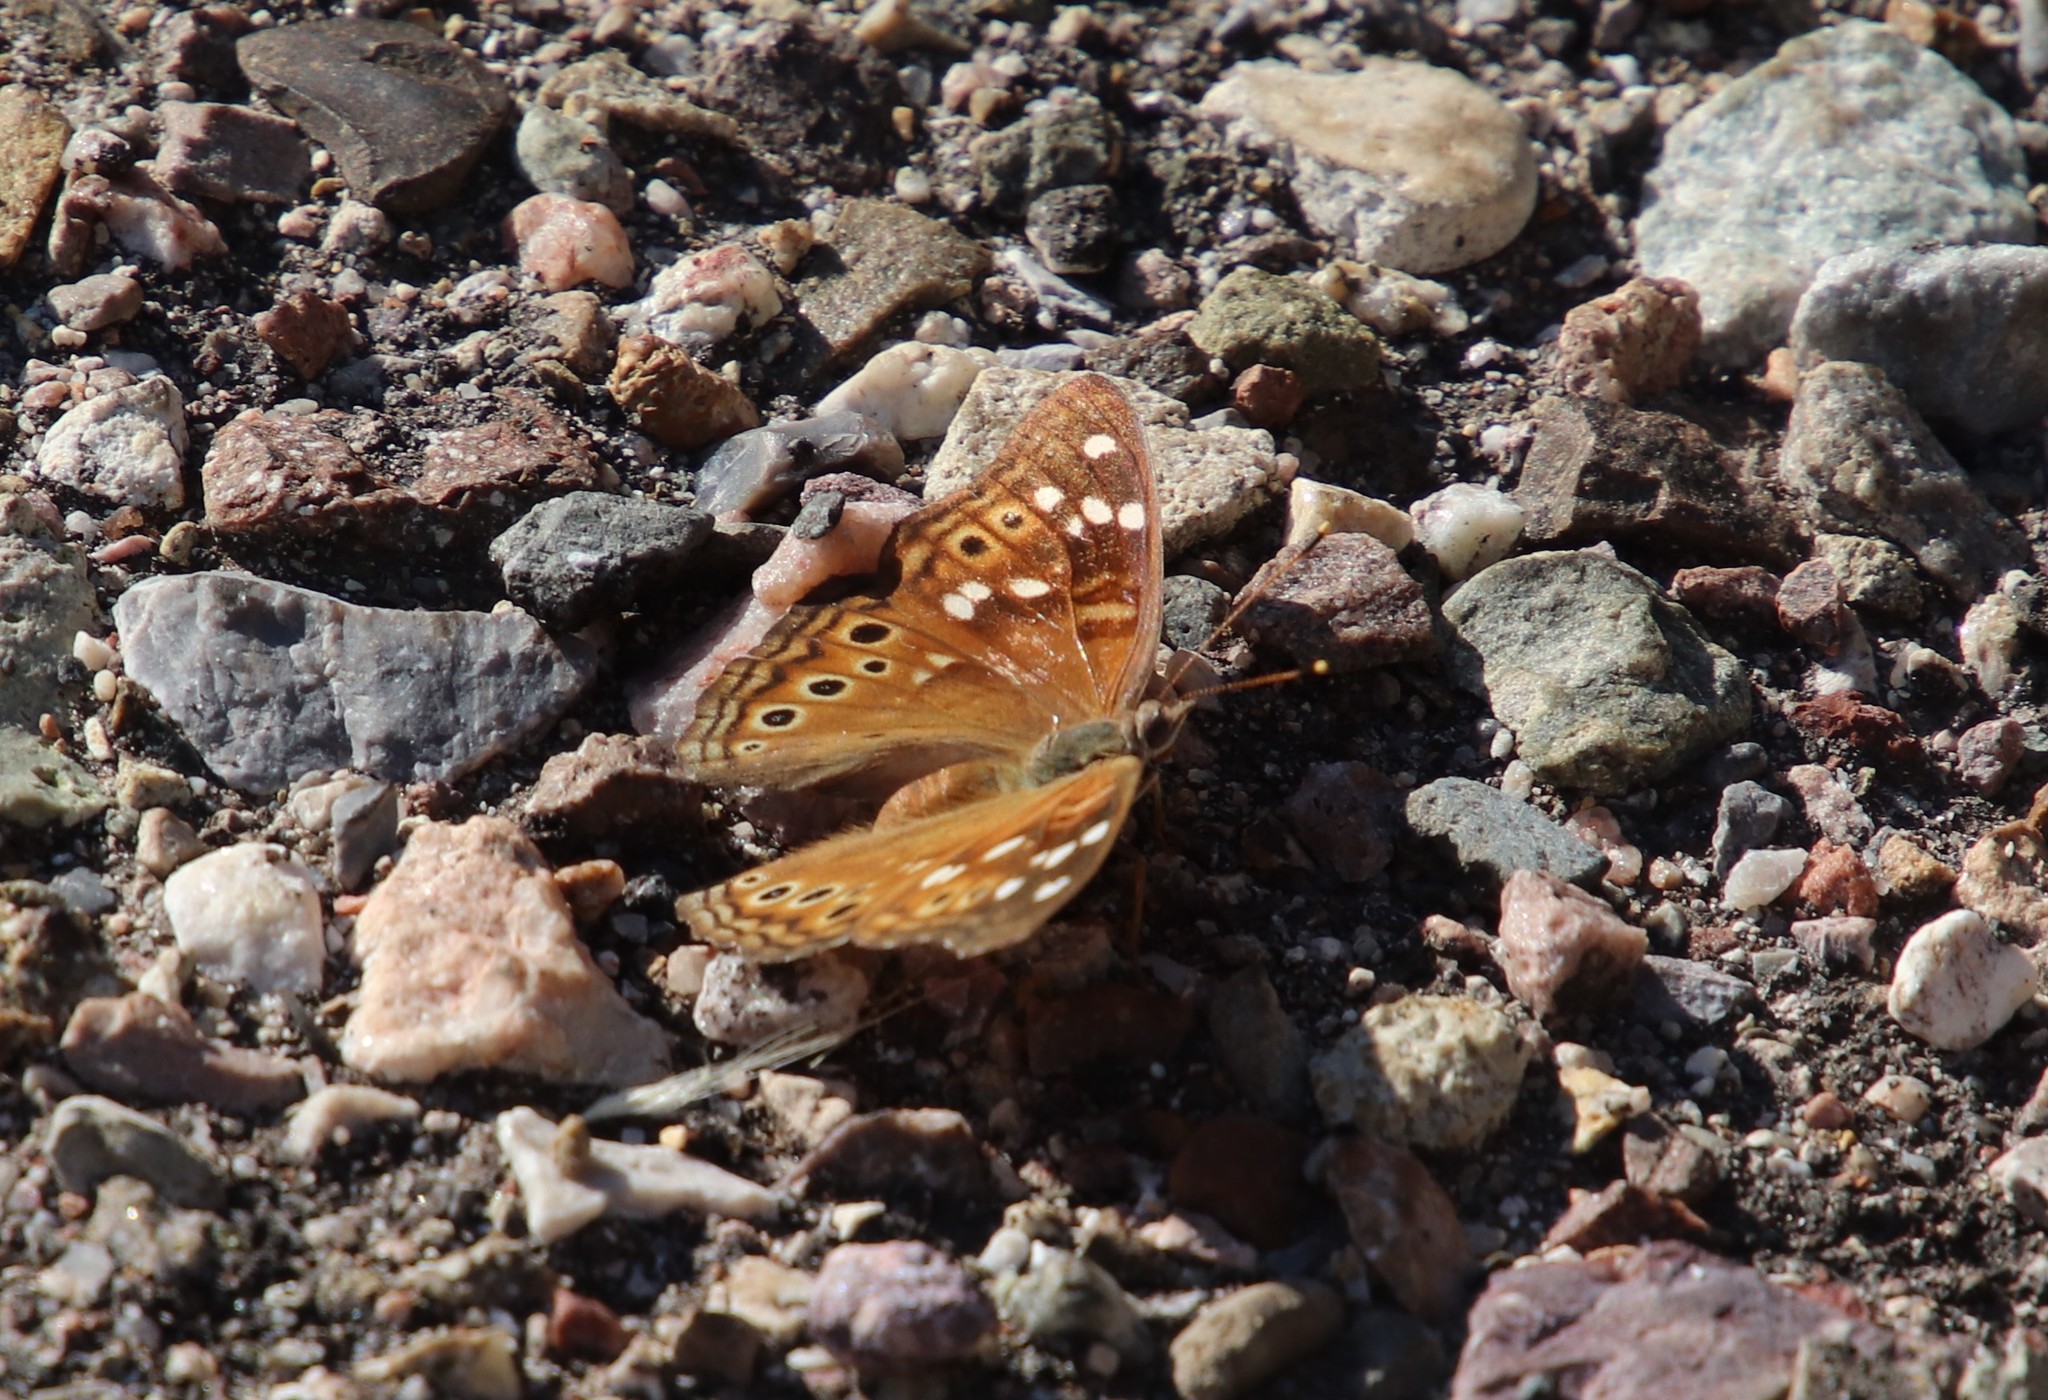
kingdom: Animalia
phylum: Arthropoda
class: Insecta
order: Lepidoptera
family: Nymphalidae
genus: Asterocampa
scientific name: Asterocampa leilia
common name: Empress leilia
